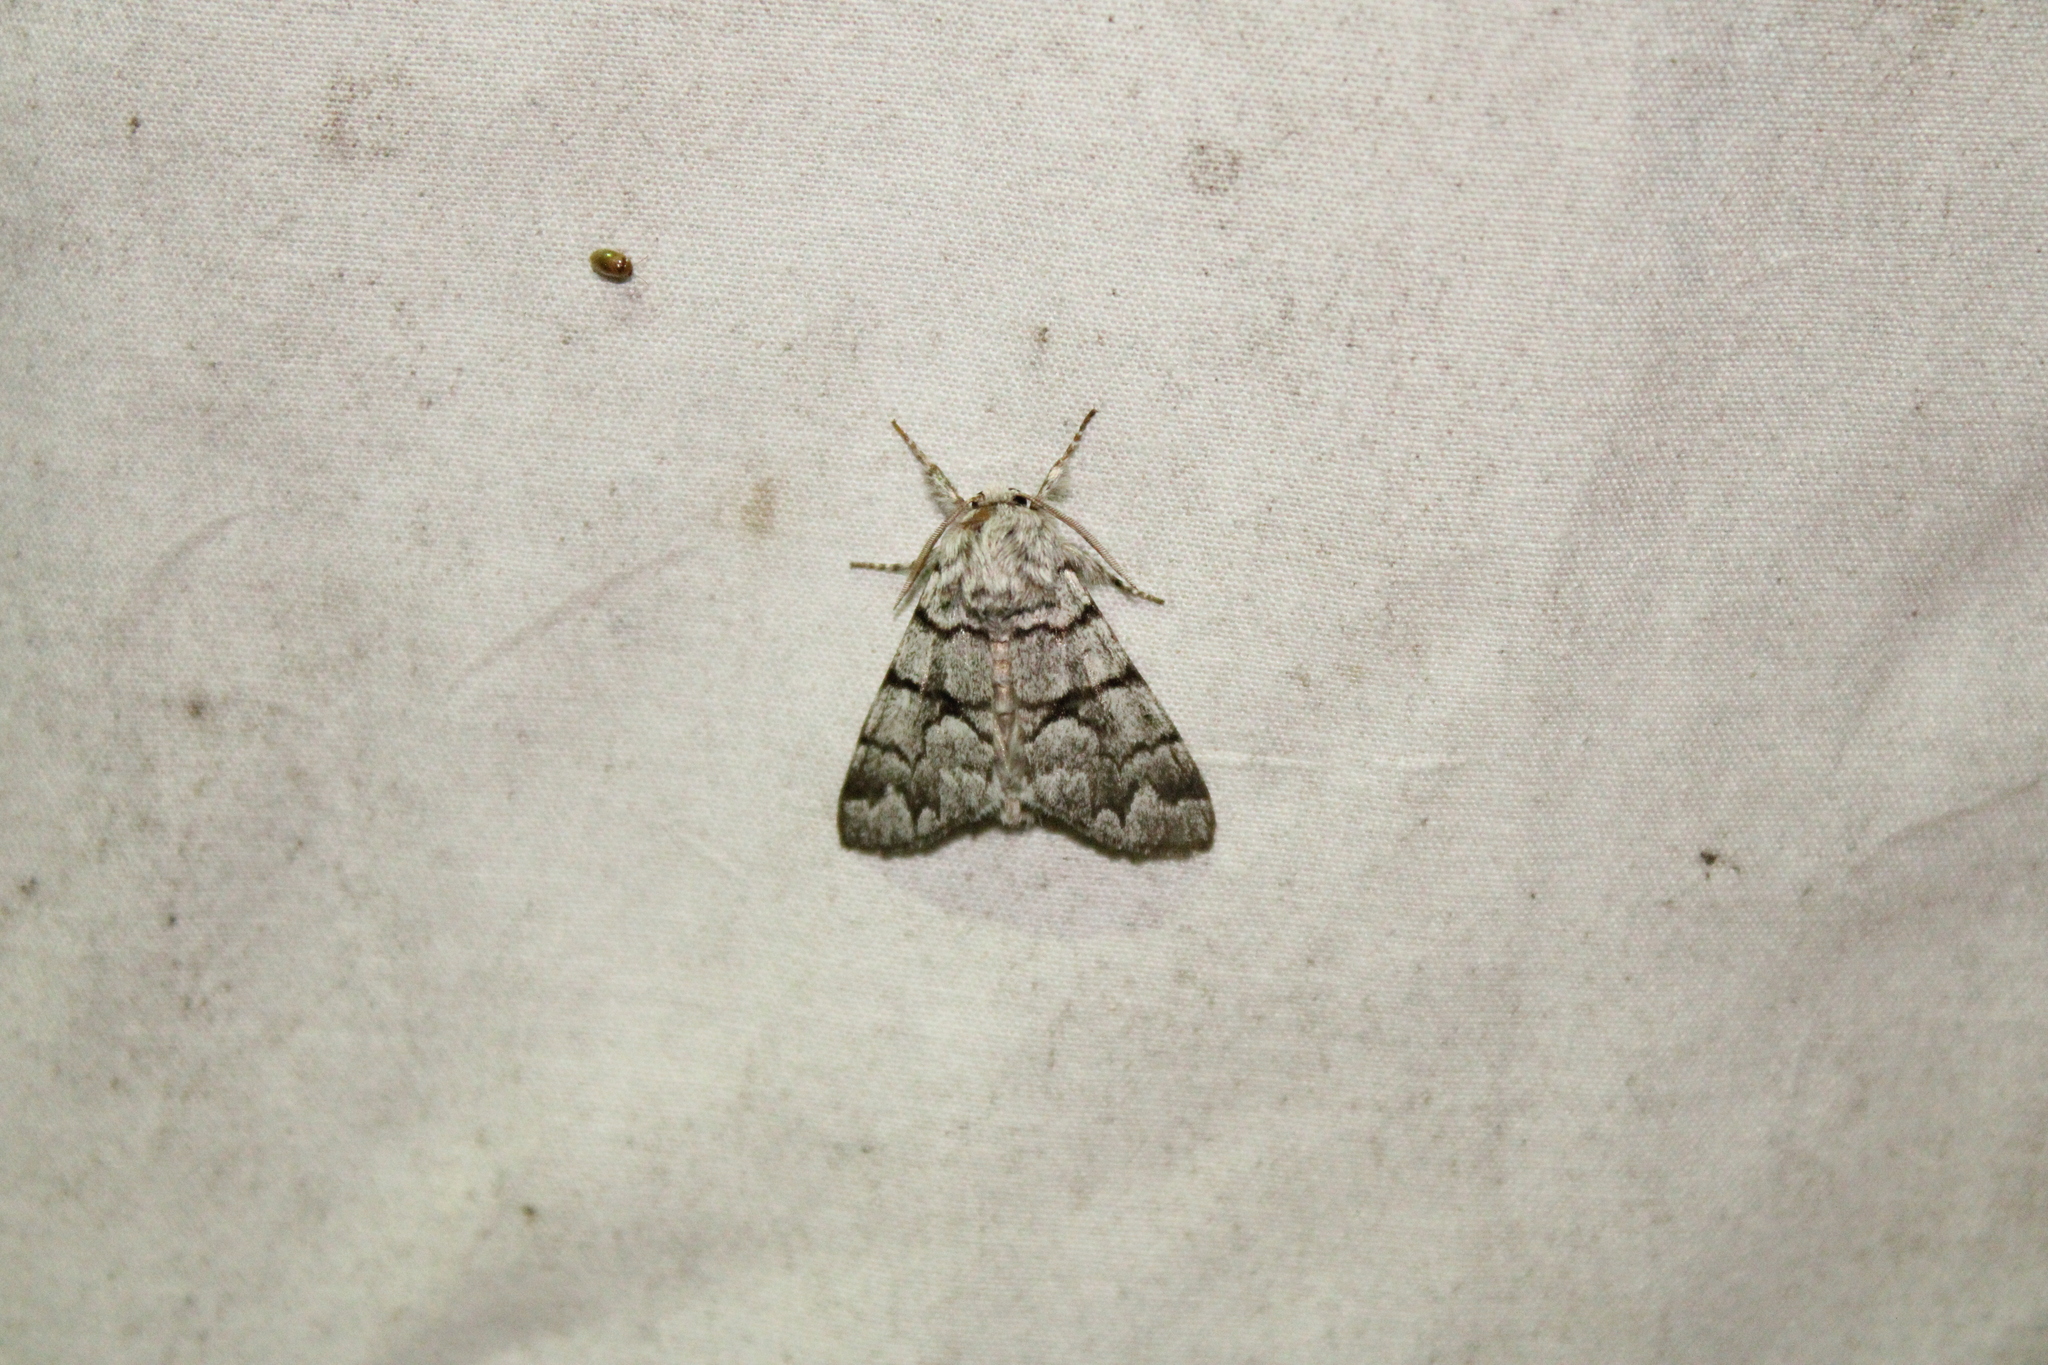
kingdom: Animalia
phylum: Arthropoda
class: Insecta
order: Lepidoptera
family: Noctuidae
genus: Panthea
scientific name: Panthea furcilla
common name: Eastern panthea moth
